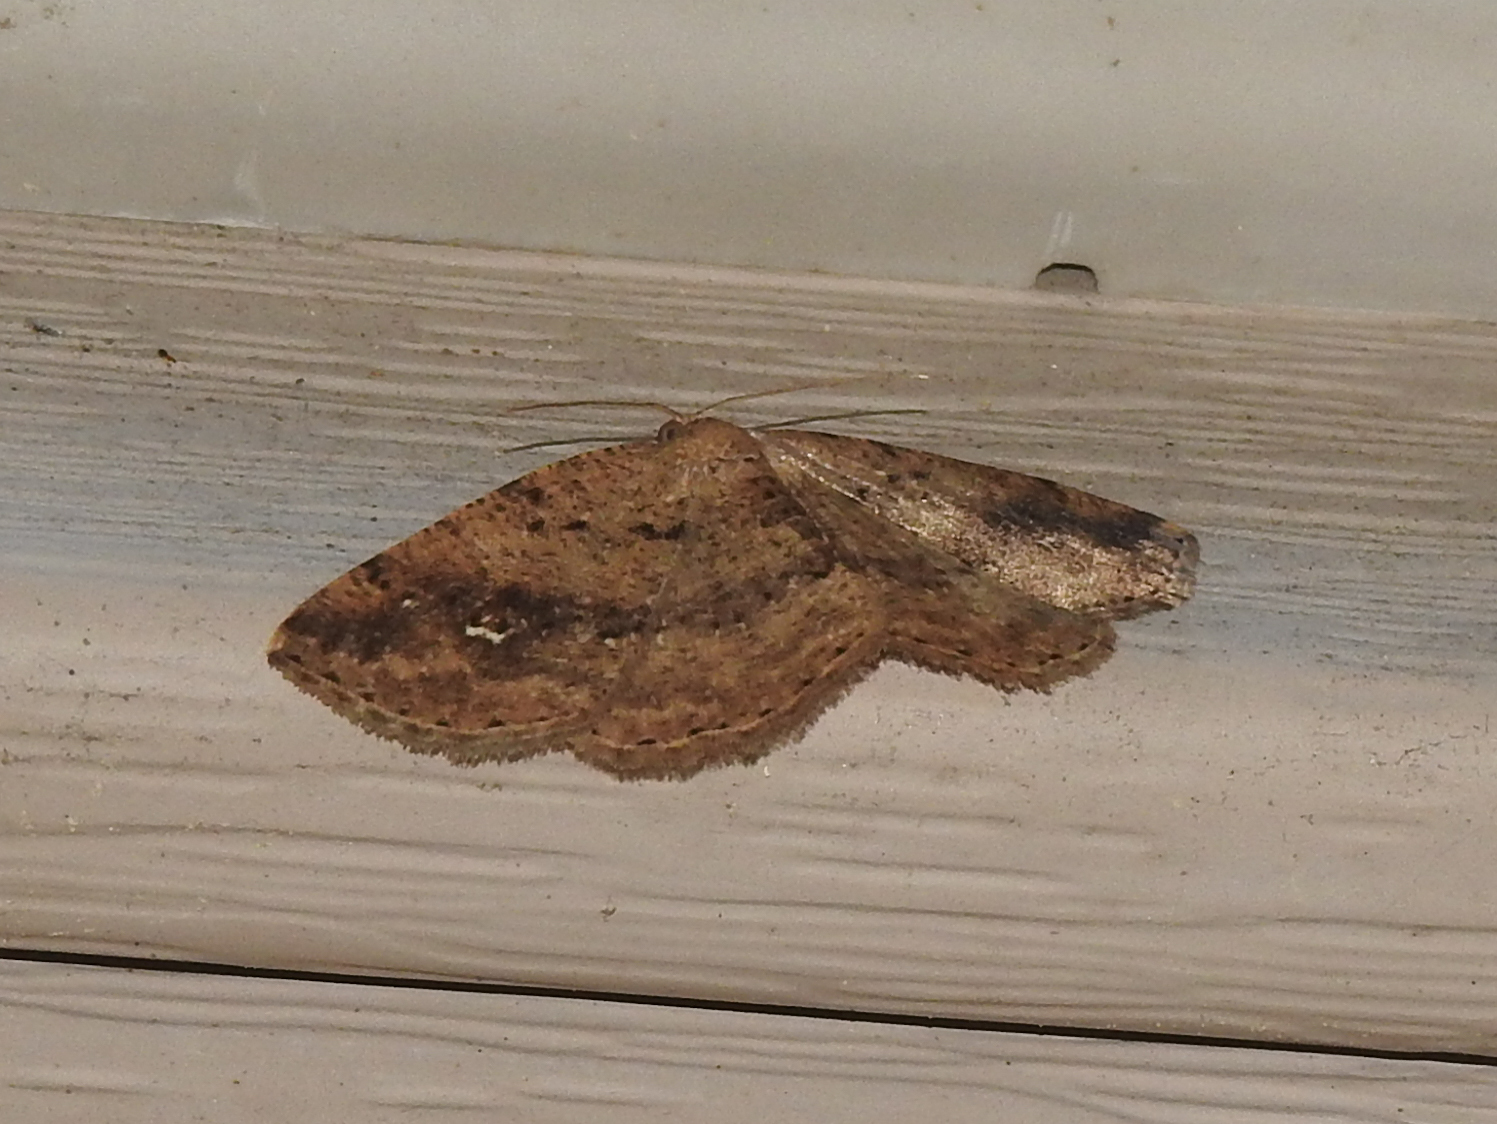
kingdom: Animalia
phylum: Arthropoda
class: Insecta
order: Lepidoptera
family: Geometridae
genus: Homochlodes
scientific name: Homochlodes fritillaria
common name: Pale homochlodes
